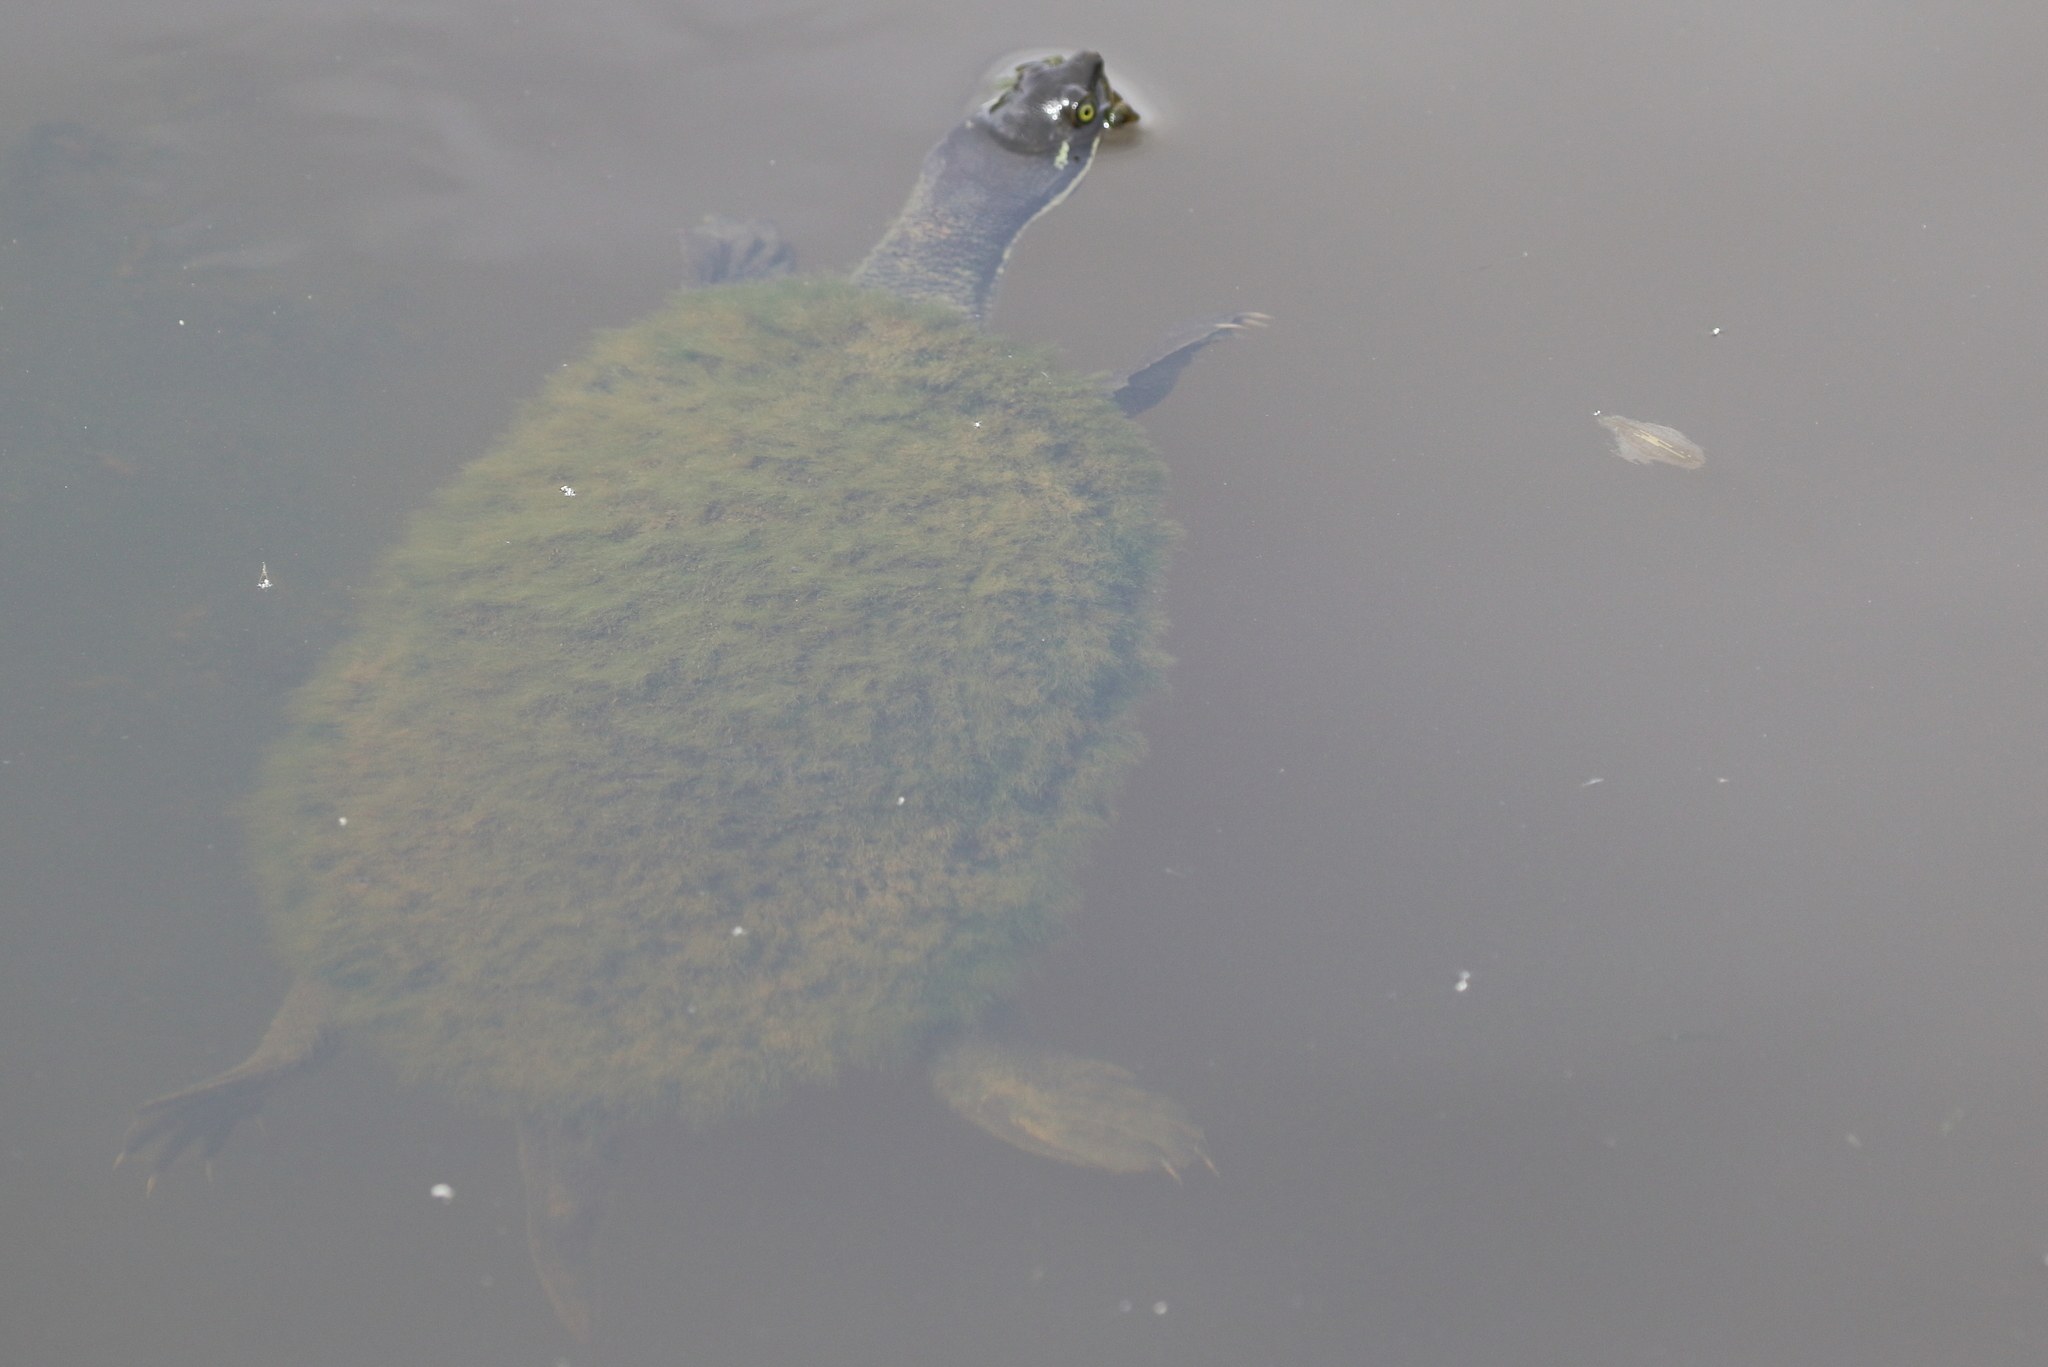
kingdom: Animalia
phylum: Chordata
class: Testudines
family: Chelidae
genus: Emydura
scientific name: Emydura macquarii
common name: Murray river turtle
